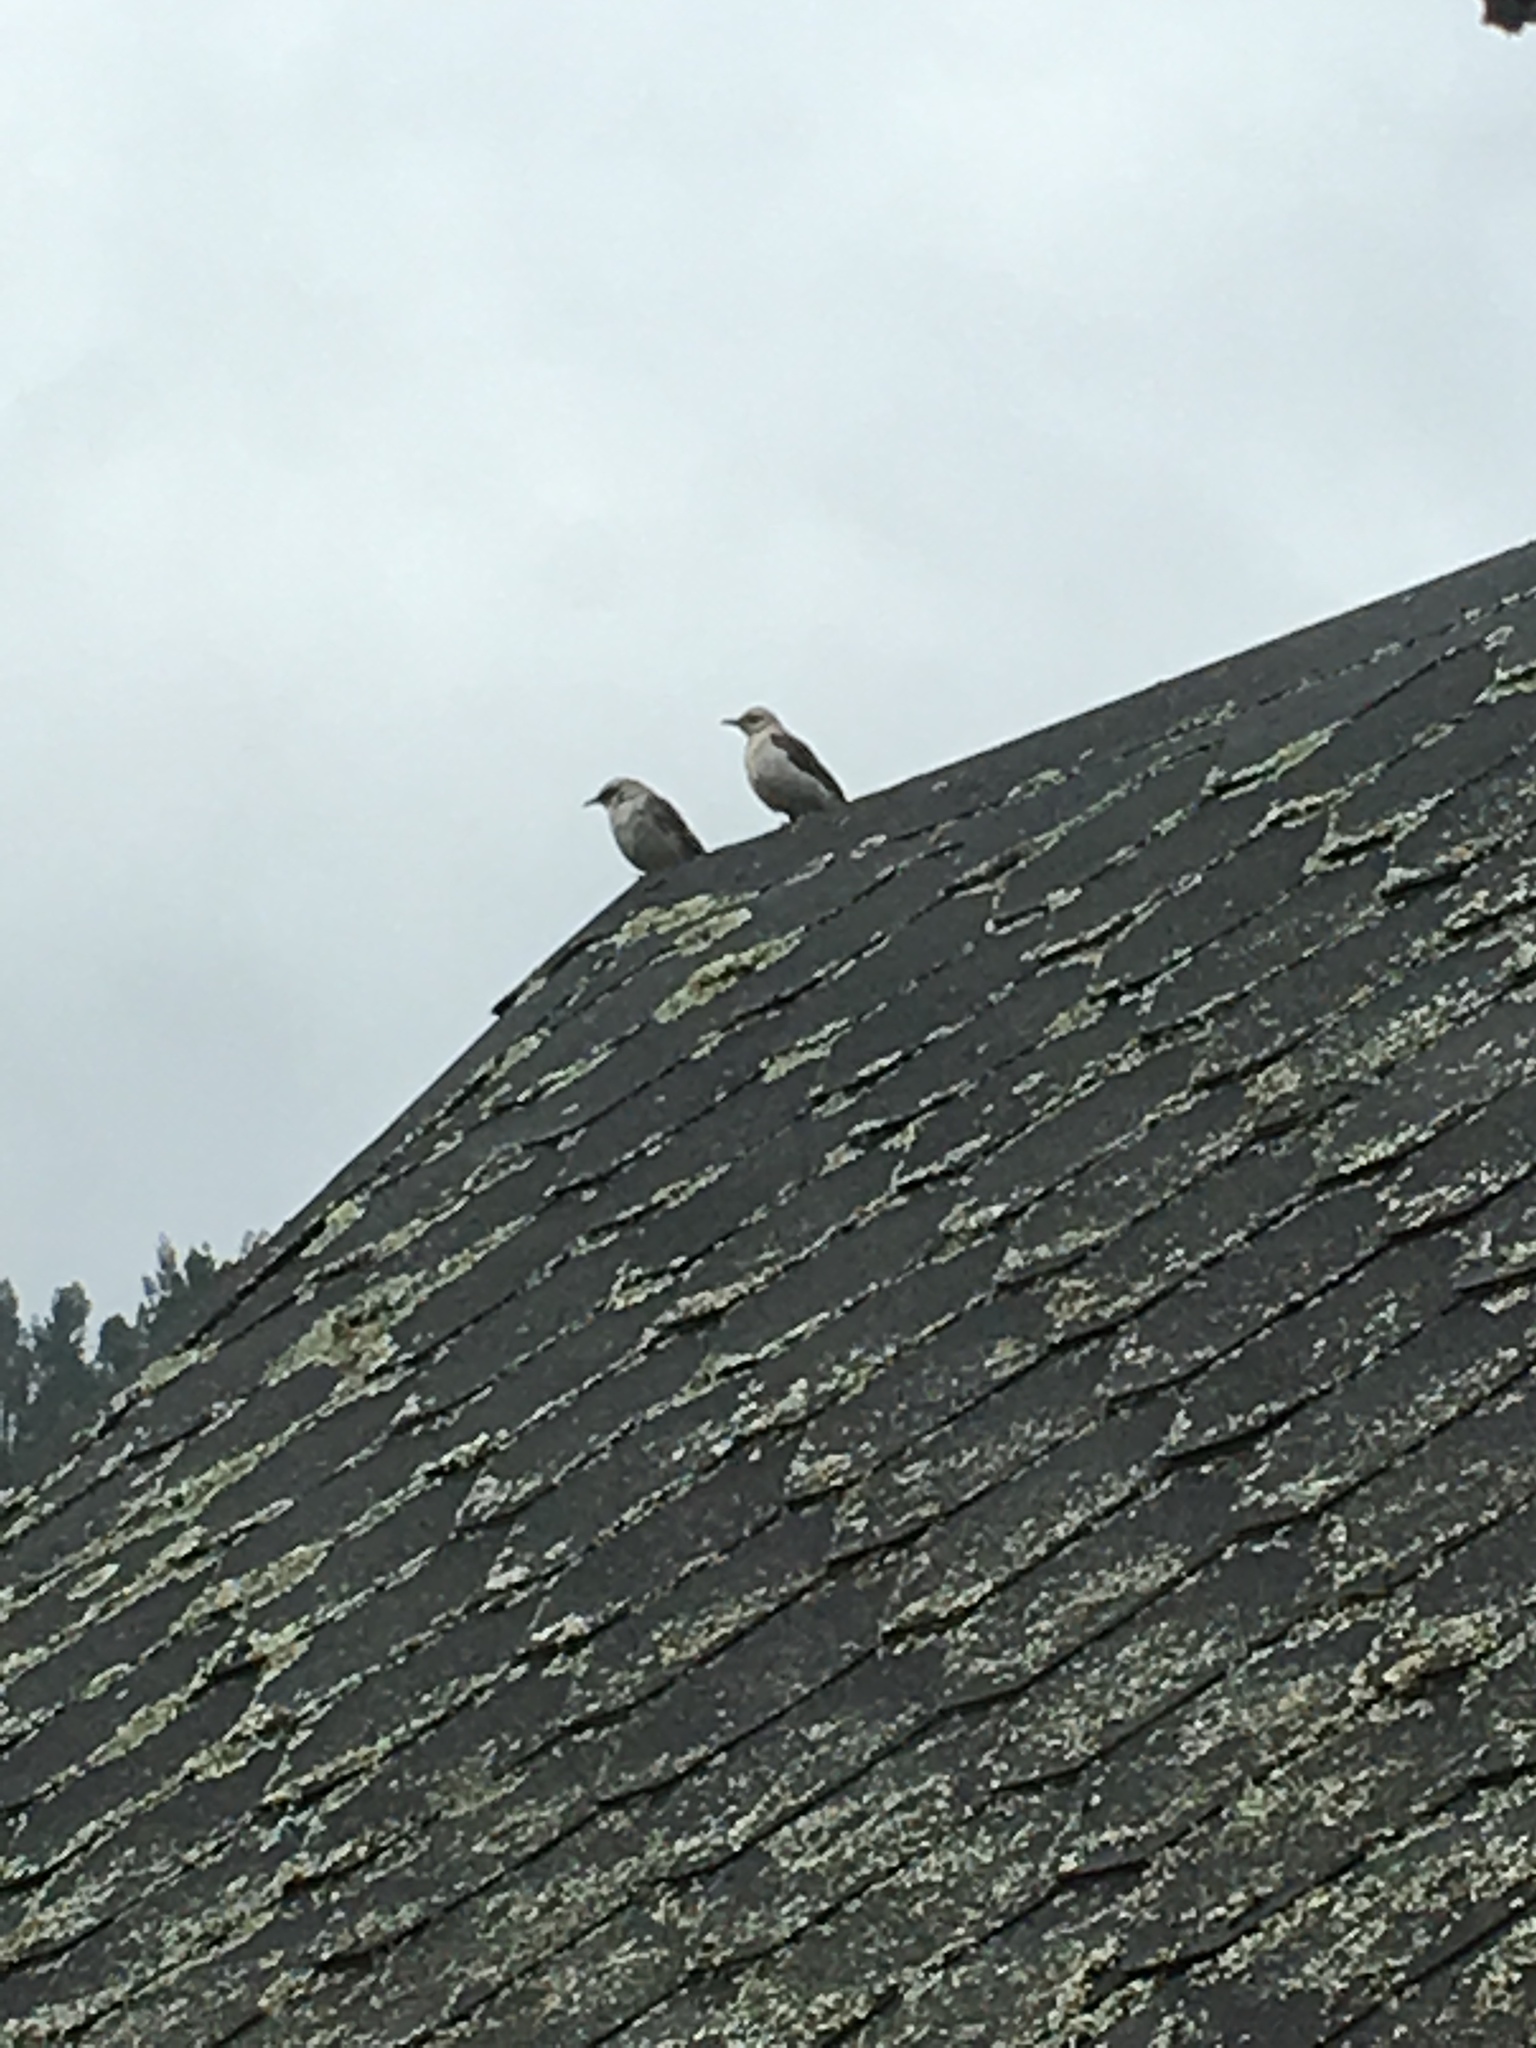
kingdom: Animalia
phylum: Chordata
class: Aves
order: Passeriformes
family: Mimidae
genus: Mimus
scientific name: Mimus gilvus
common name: Tropical mockingbird
